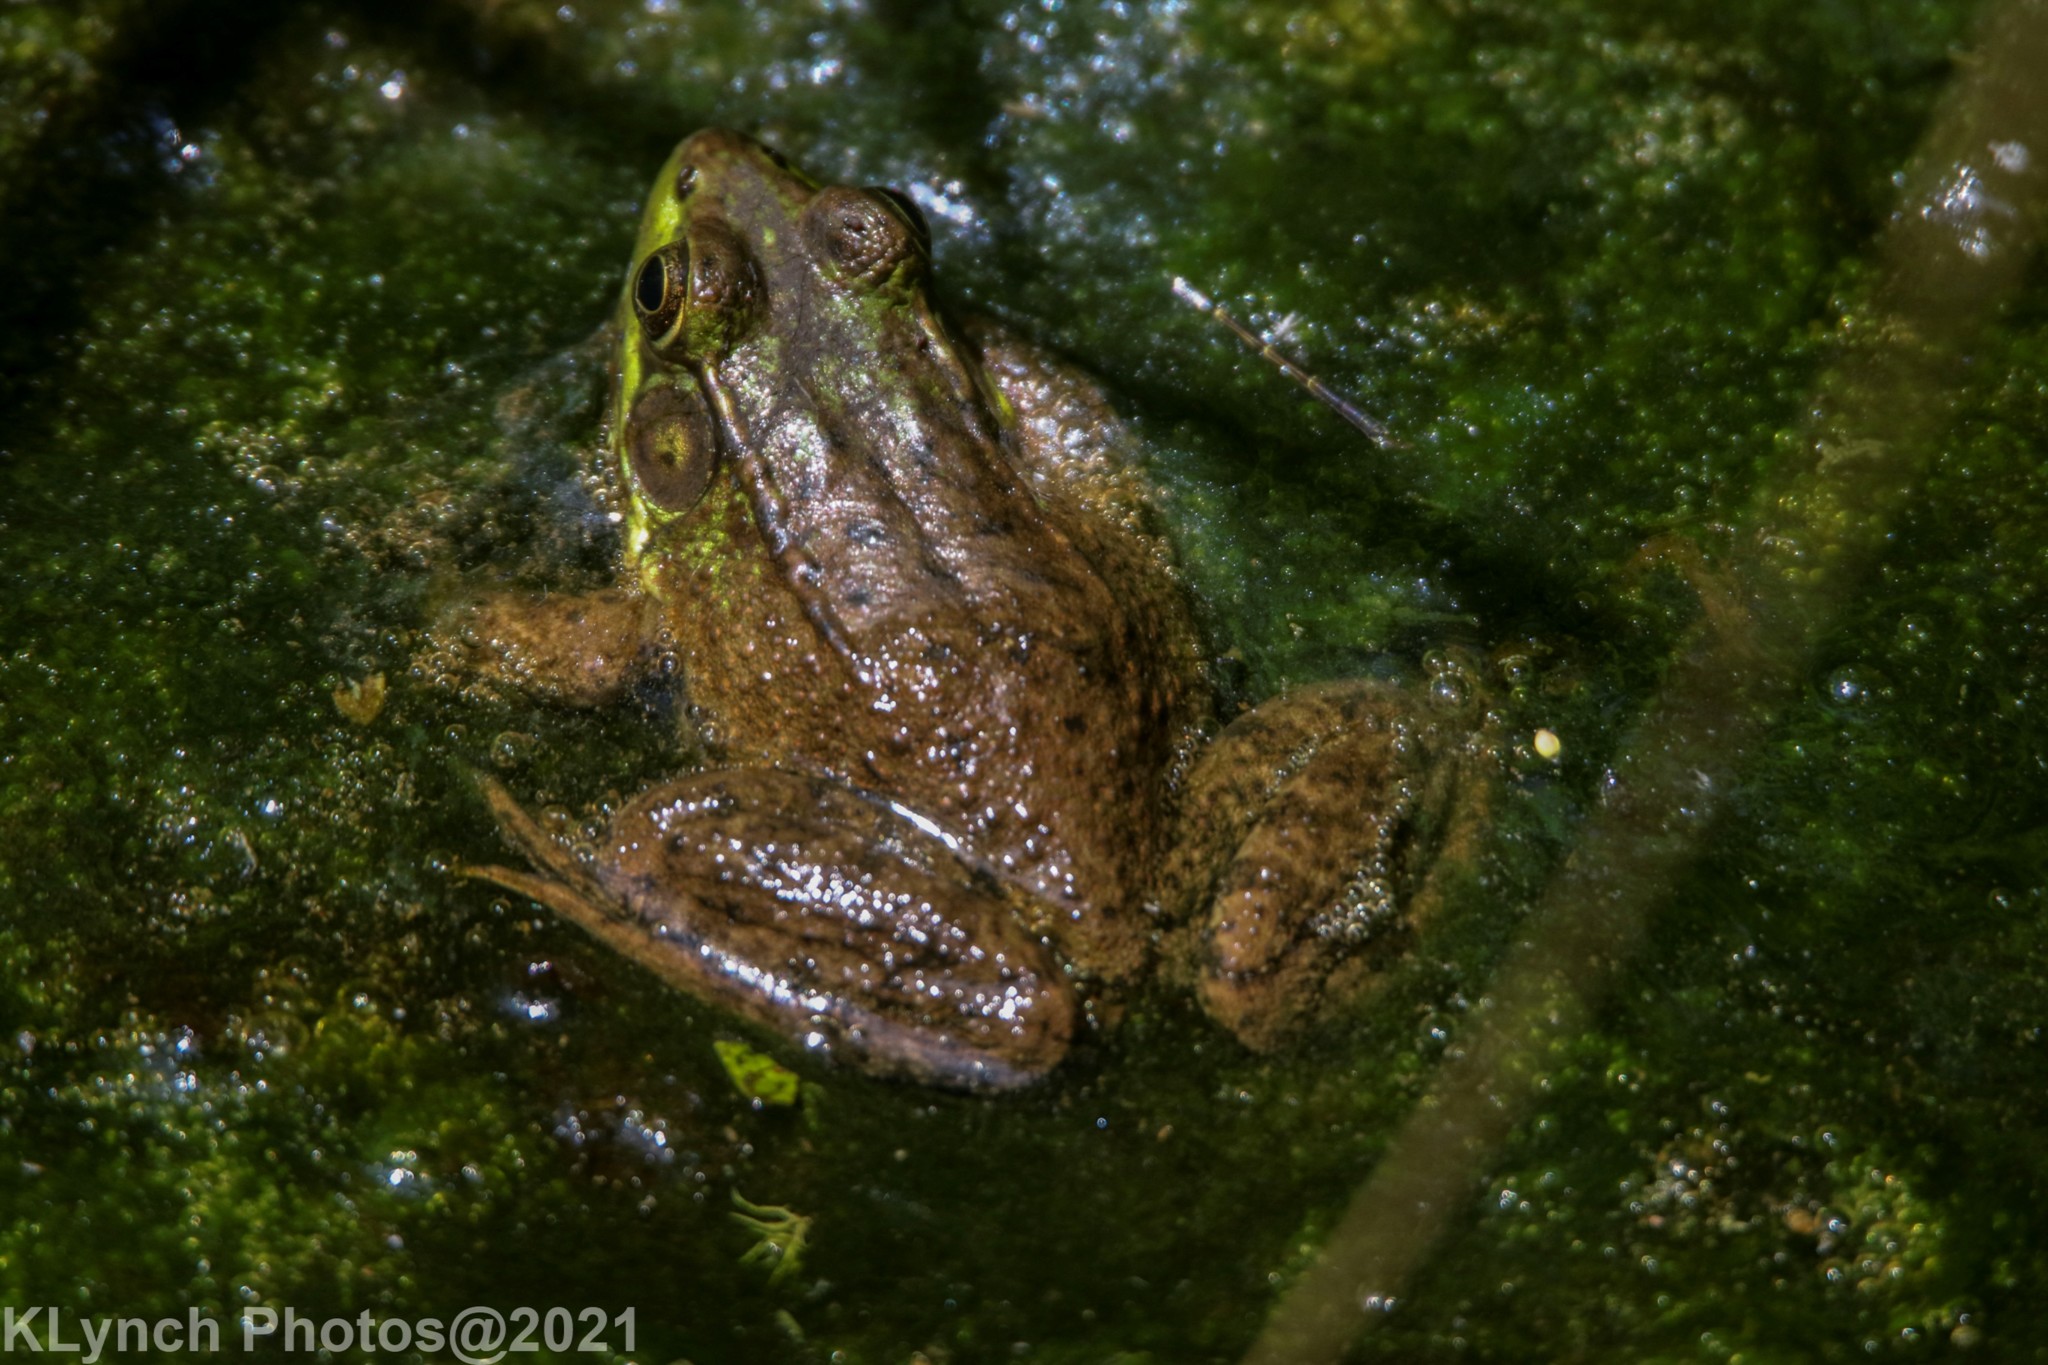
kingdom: Animalia
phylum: Chordata
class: Amphibia
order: Anura
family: Ranidae
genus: Lithobates
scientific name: Lithobates clamitans
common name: Green frog
